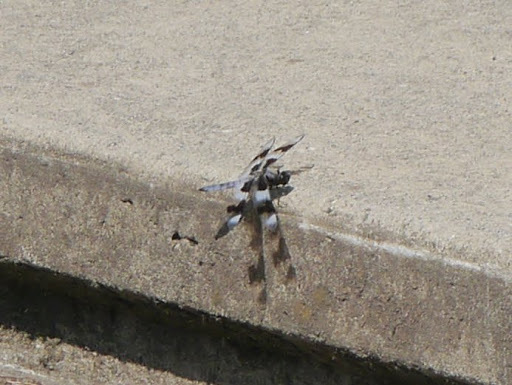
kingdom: Animalia
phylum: Arthropoda
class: Insecta
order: Odonata
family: Libellulidae
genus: Libellula
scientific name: Libellula forensis
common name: Eight-spotted skimmer
